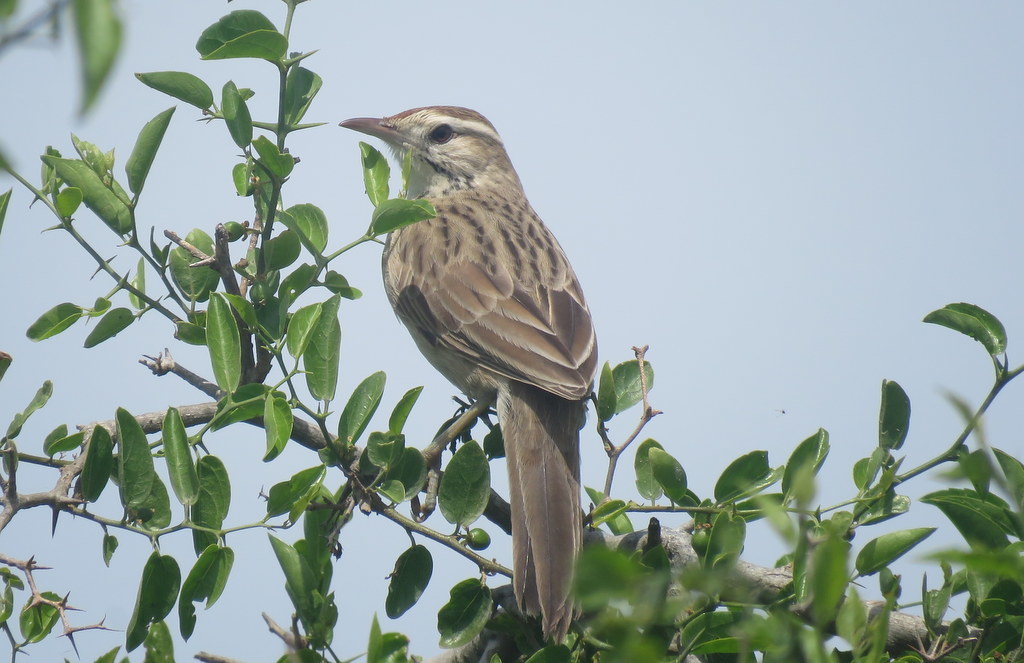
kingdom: Animalia
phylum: Chordata
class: Aves
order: Passeriformes
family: Furnariidae
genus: Anumbius
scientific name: Anumbius annumbi
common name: Firewood-gatherer
